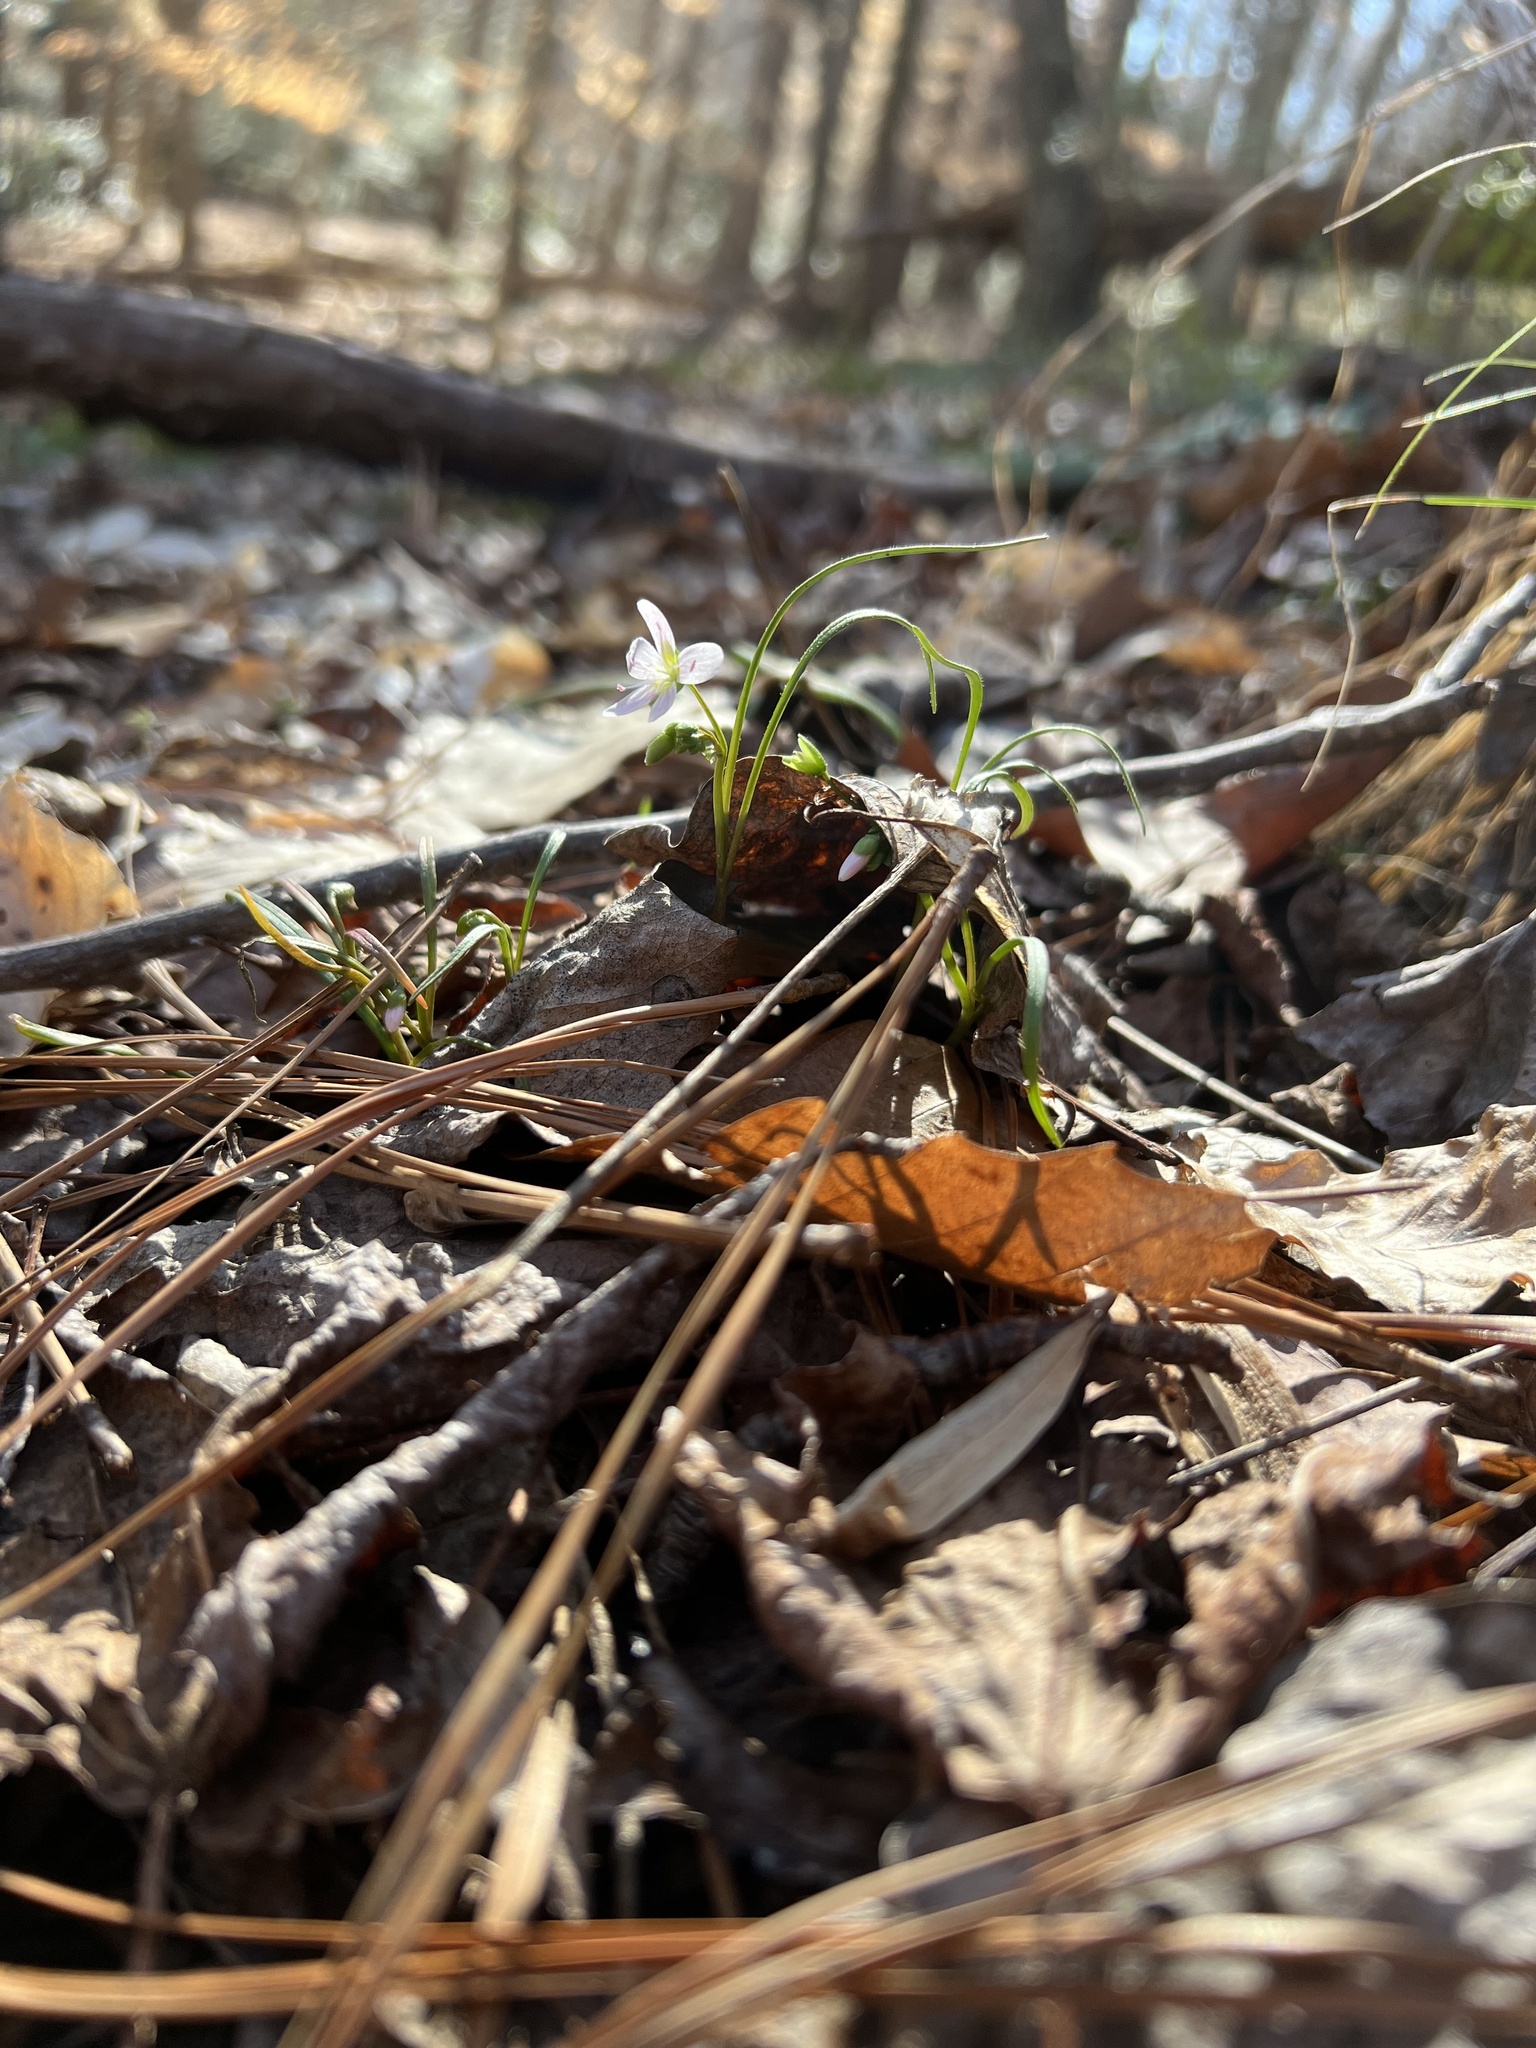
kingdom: Plantae
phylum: Tracheophyta
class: Magnoliopsida
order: Caryophyllales
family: Montiaceae
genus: Claytonia
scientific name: Claytonia virginica
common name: Virginia springbeauty
